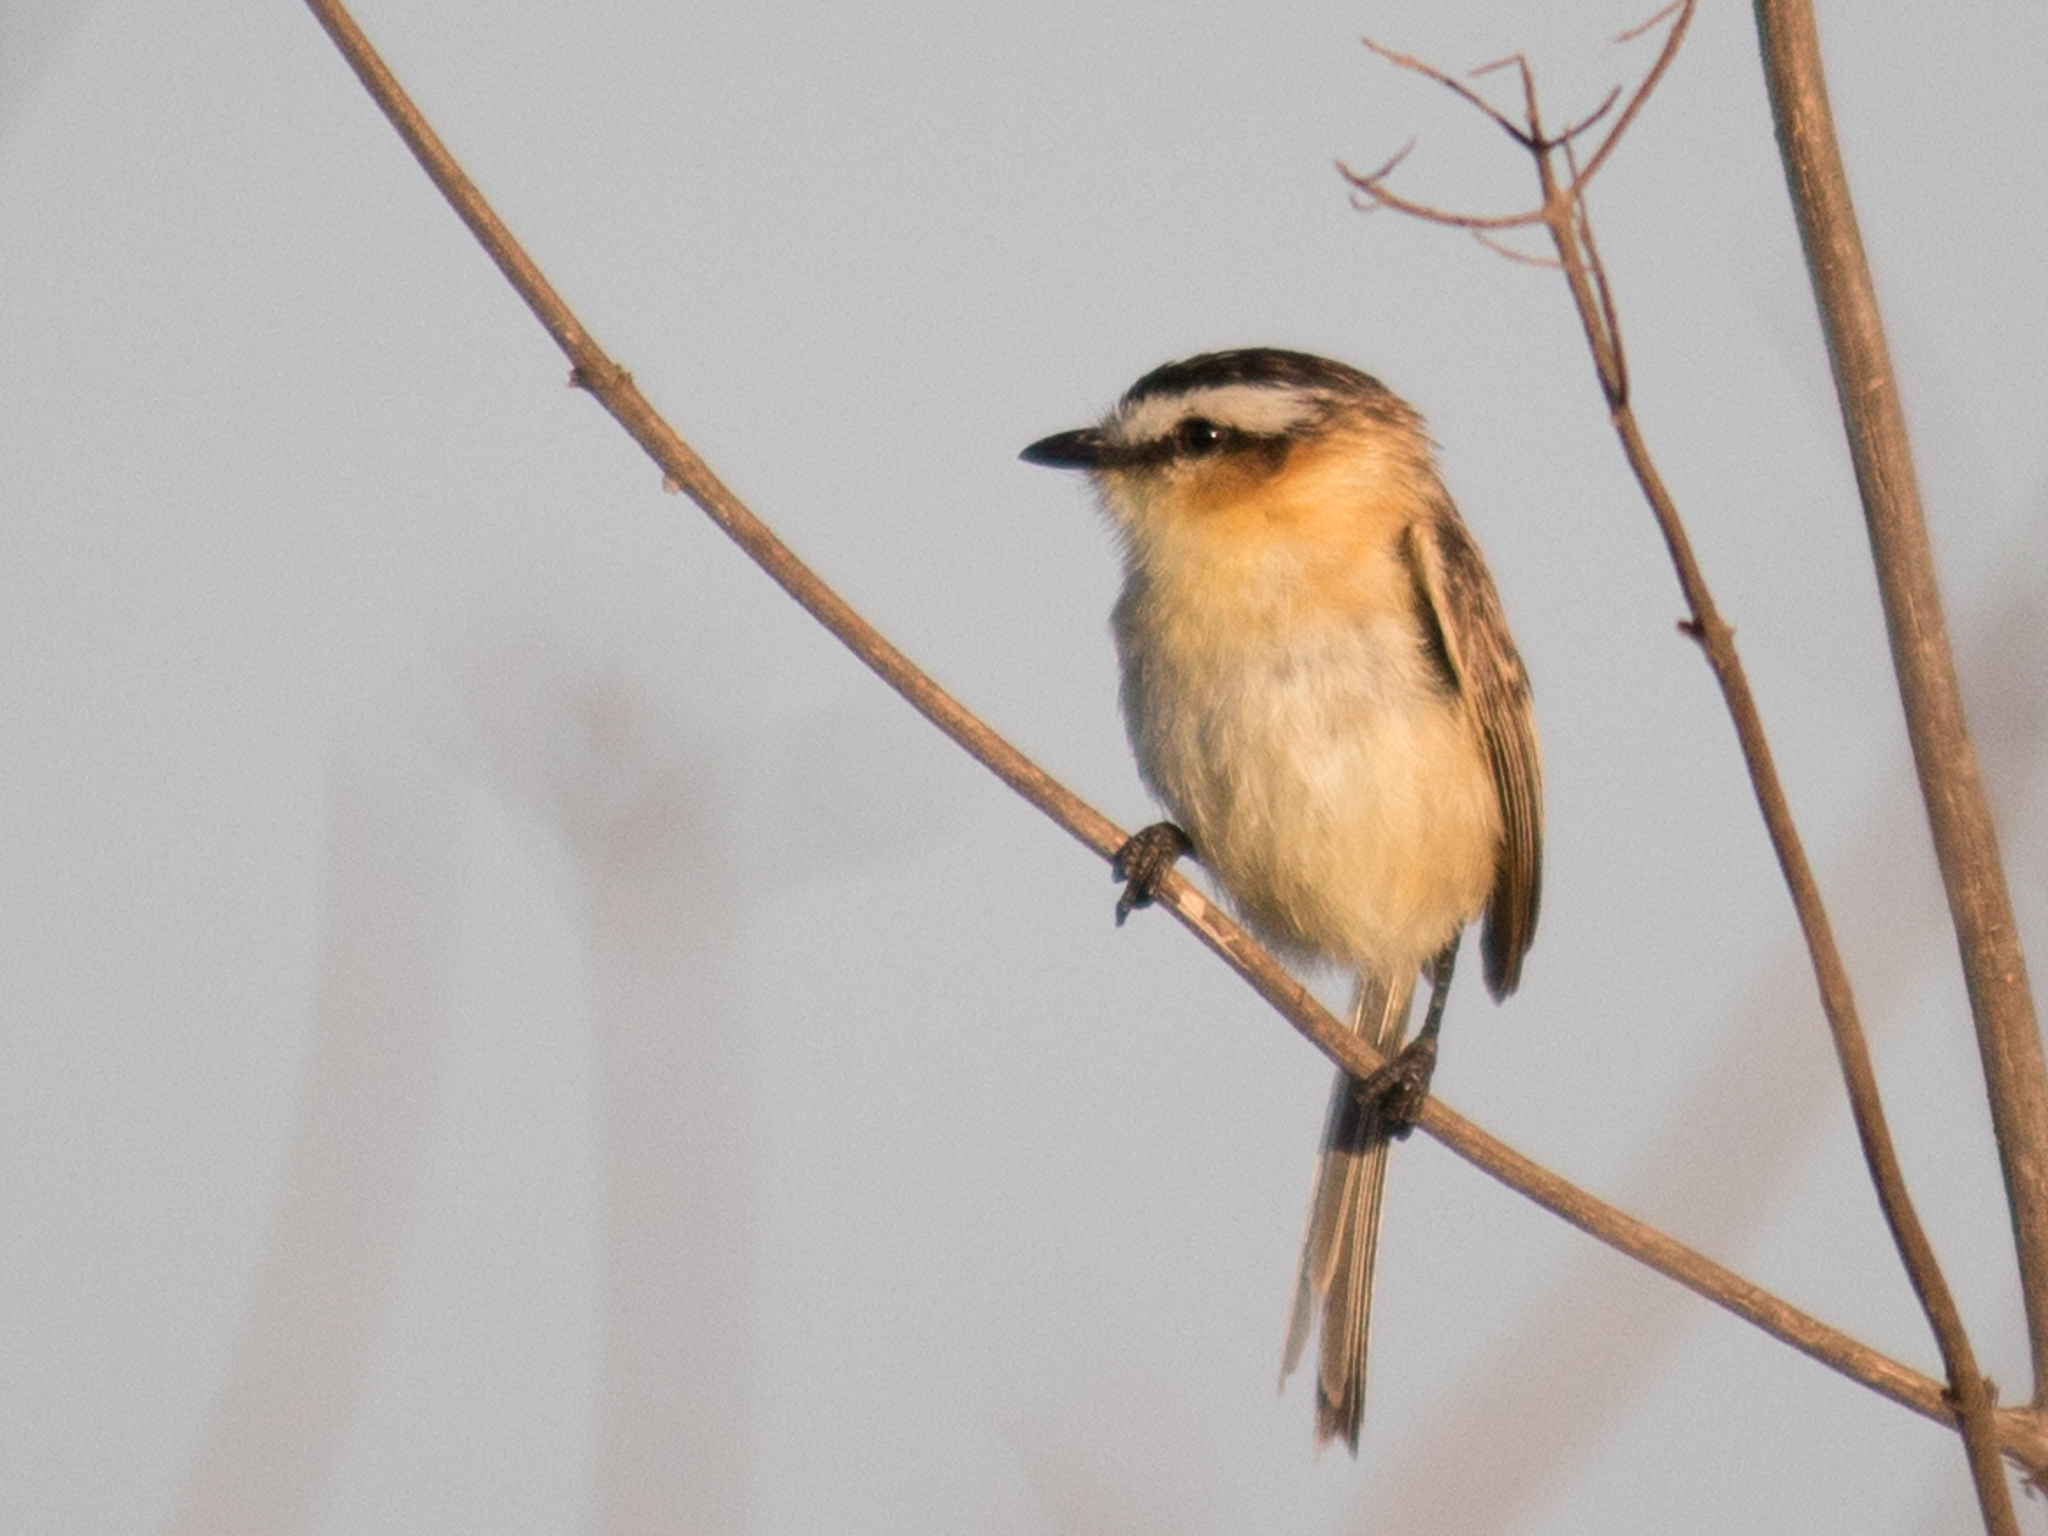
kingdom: Animalia
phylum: Chordata
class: Aves
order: Passeriformes
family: Tyrannidae
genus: Culicivora
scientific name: Culicivora caudacuta
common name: Sharp-tailed grass tyrant
